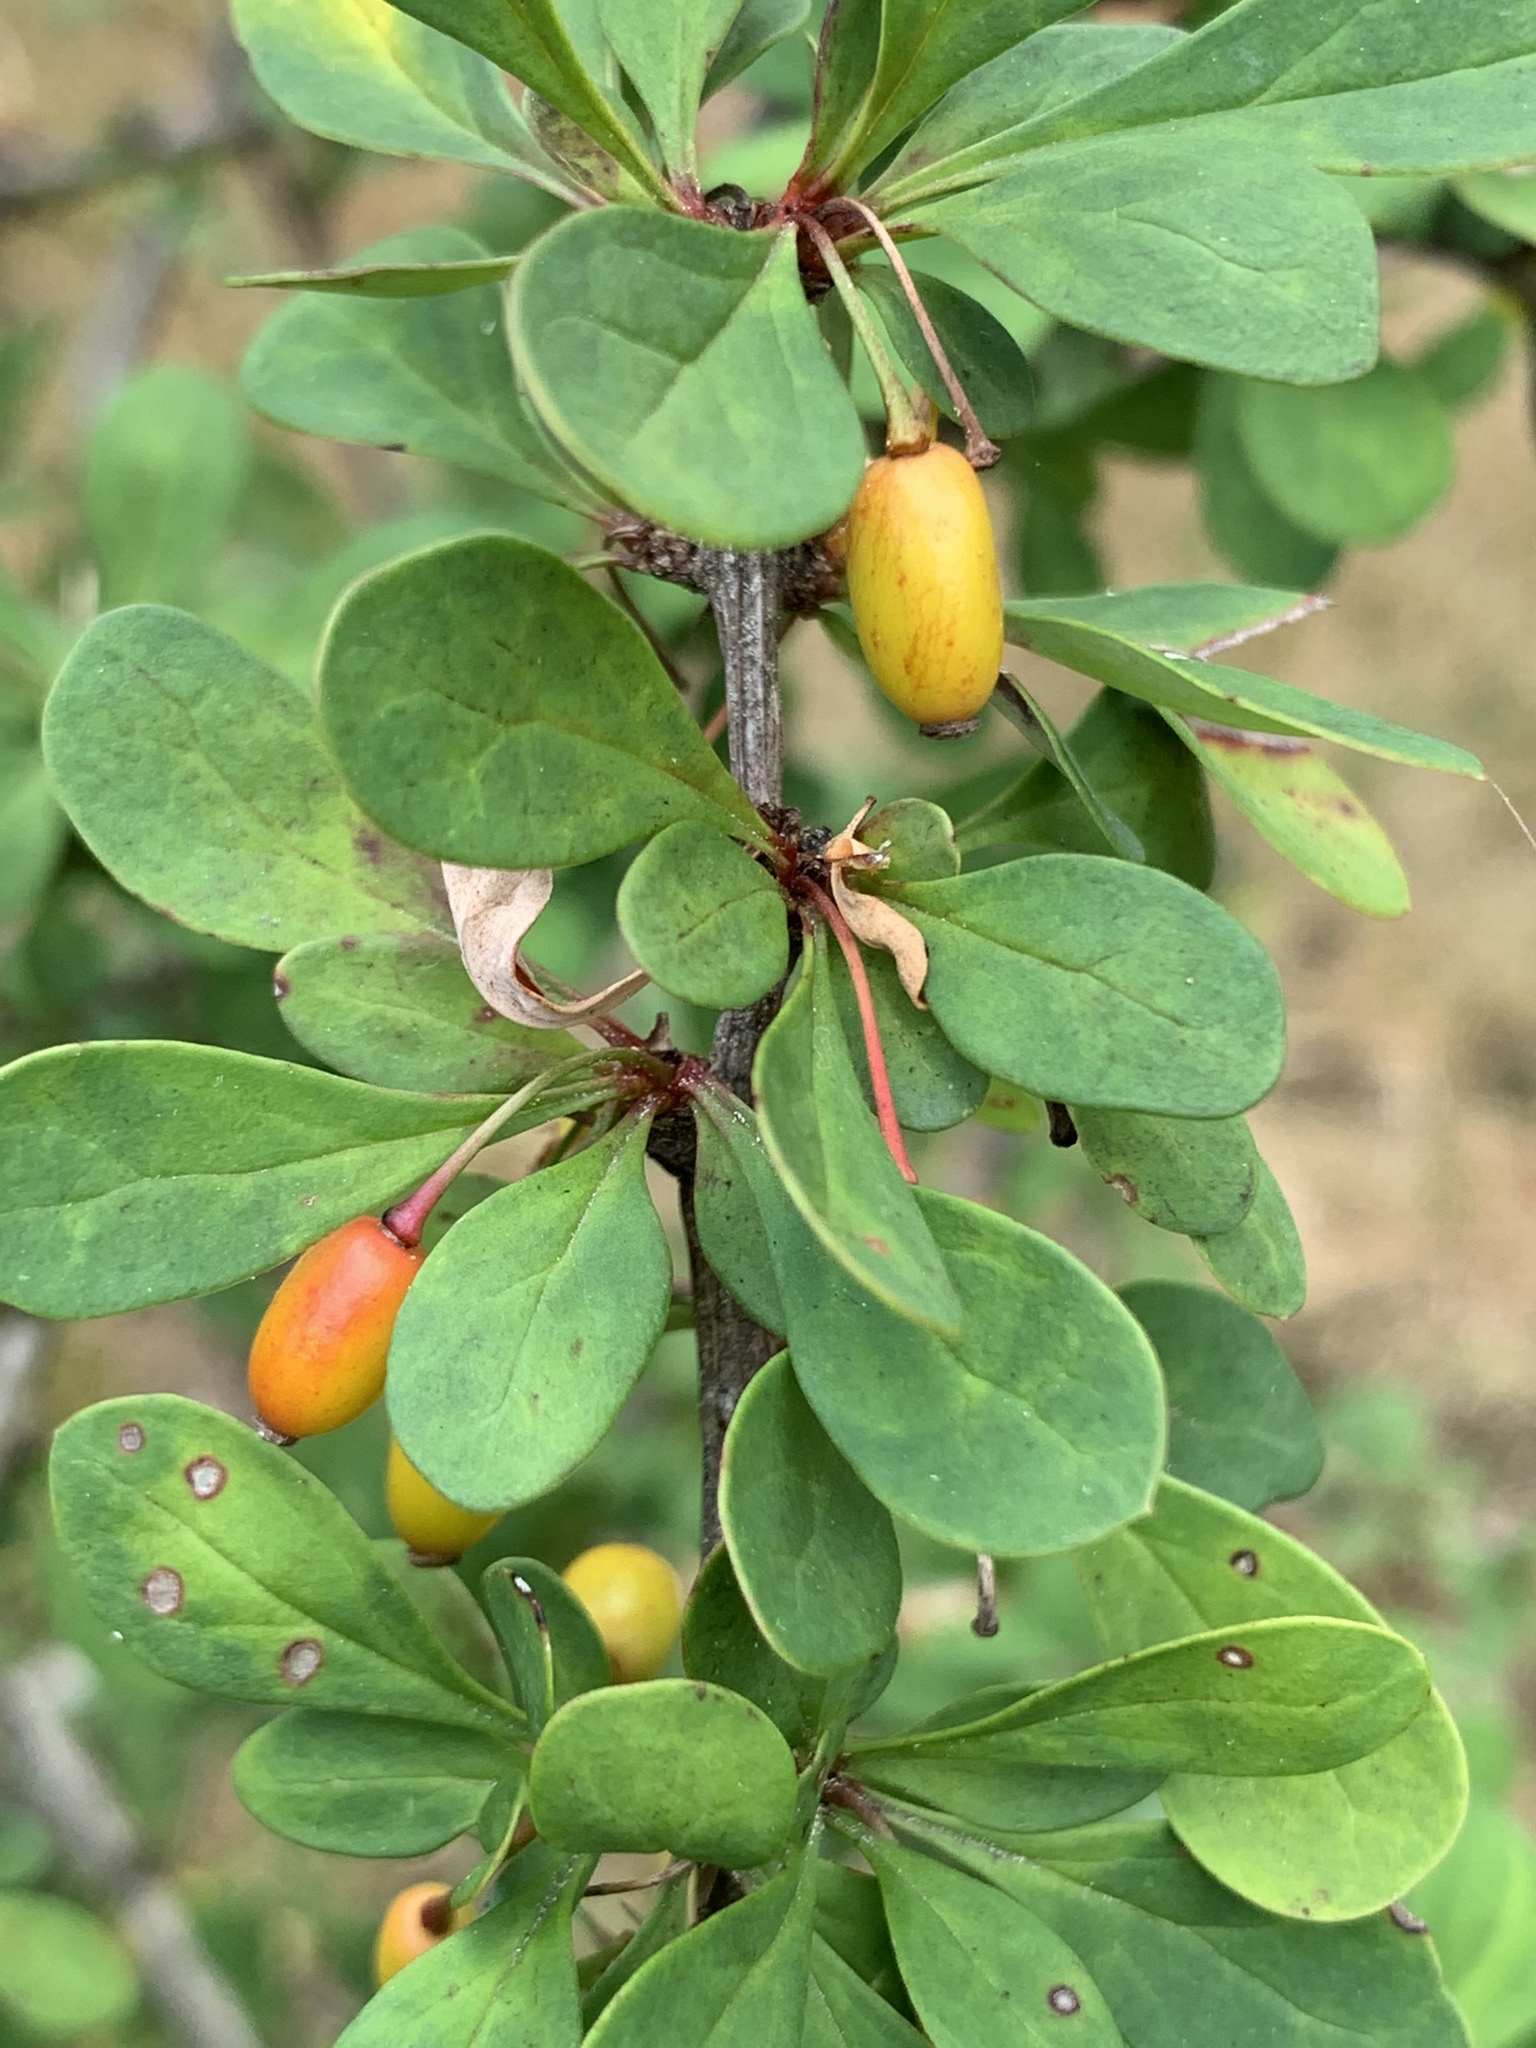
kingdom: Plantae
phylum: Tracheophyta
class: Magnoliopsida
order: Ranunculales
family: Berberidaceae
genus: Berberis
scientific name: Berberis thunbergii
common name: Japanese barberry
